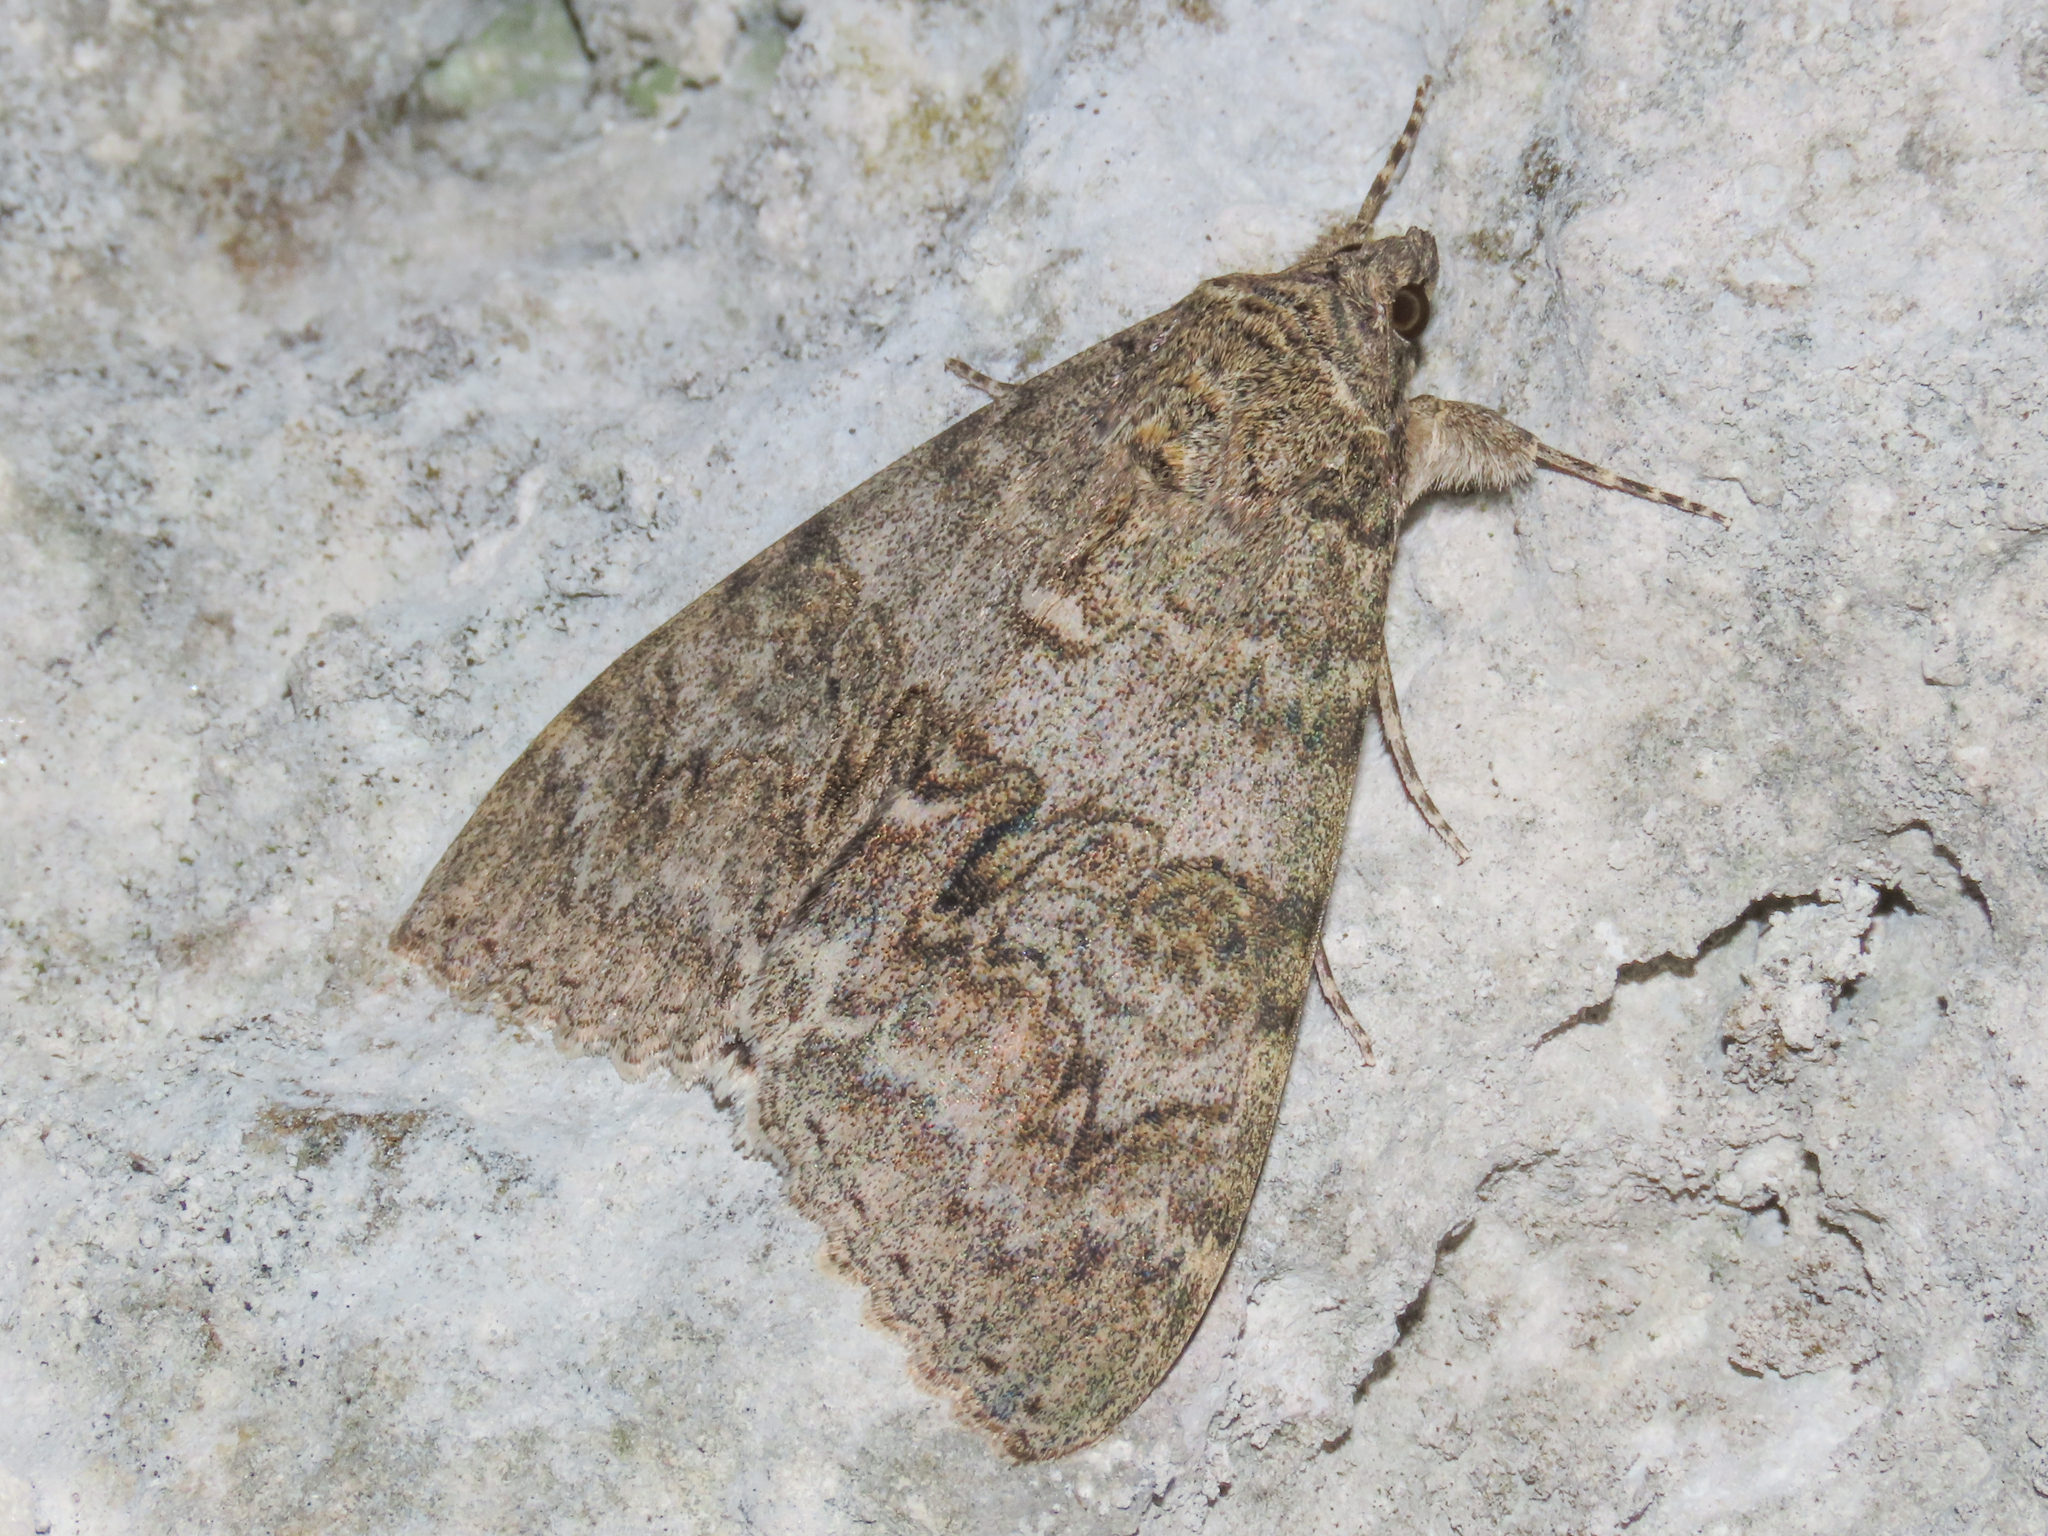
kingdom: Animalia
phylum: Arthropoda
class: Insecta
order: Lepidoptera
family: Erebidae
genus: Catocala
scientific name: Catocala nupta
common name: Red underwing
